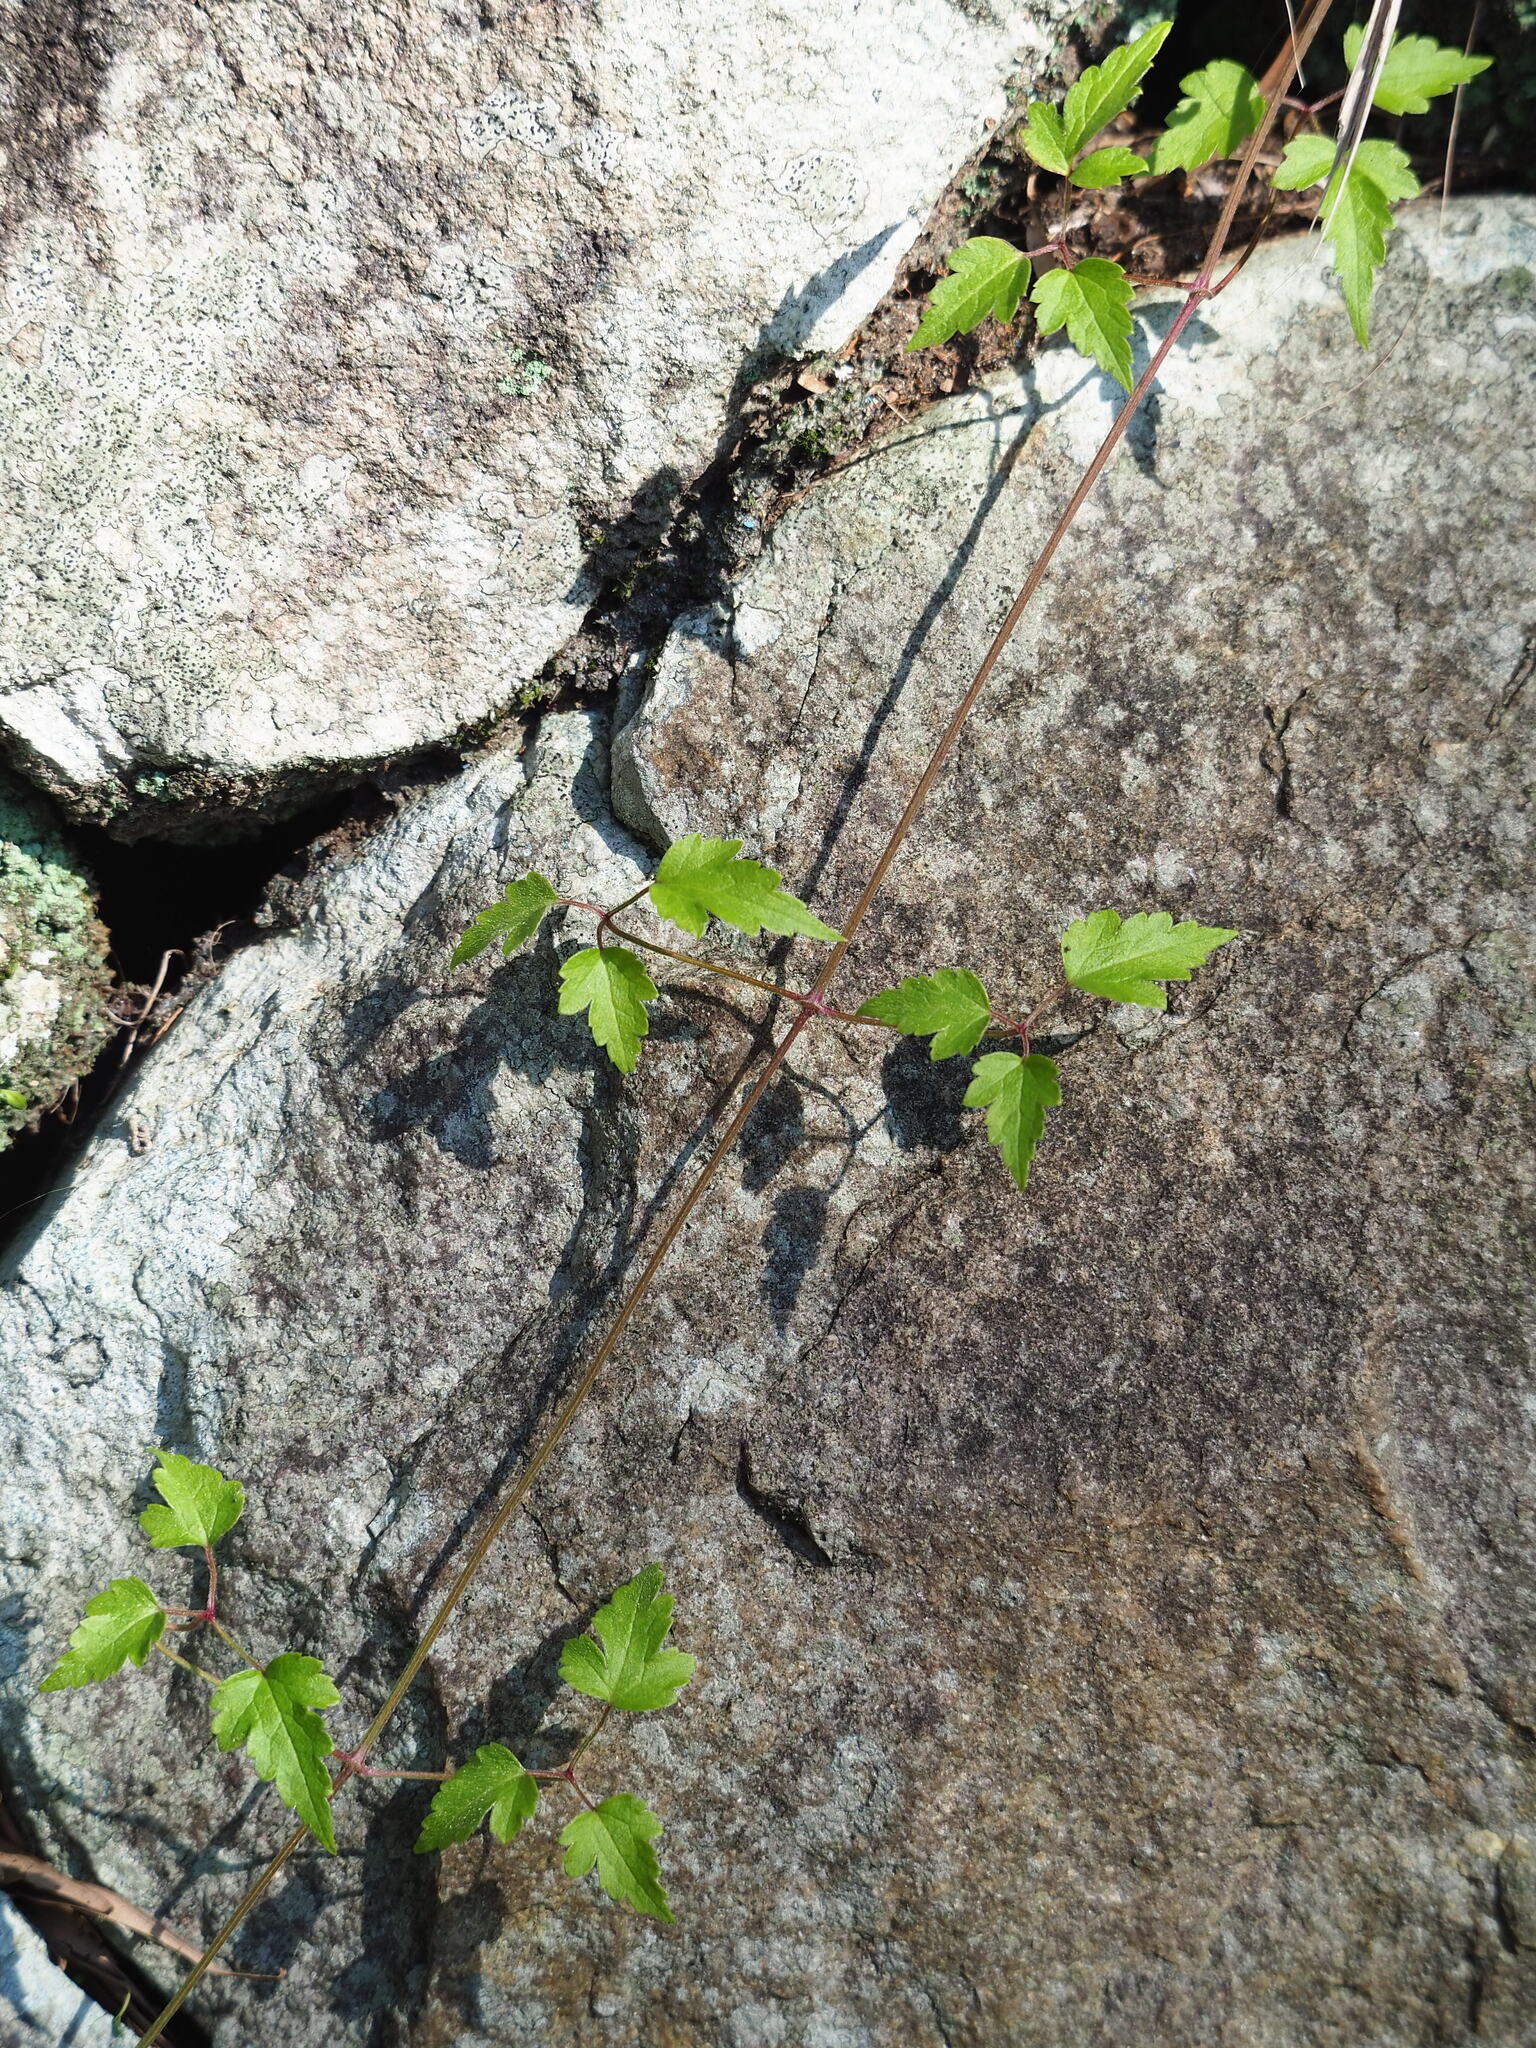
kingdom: Plantae
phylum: Tracheophyta
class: Magnoliopsida
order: Ranunculales
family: Ranunculaceae
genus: Clematis
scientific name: Clematis grata
